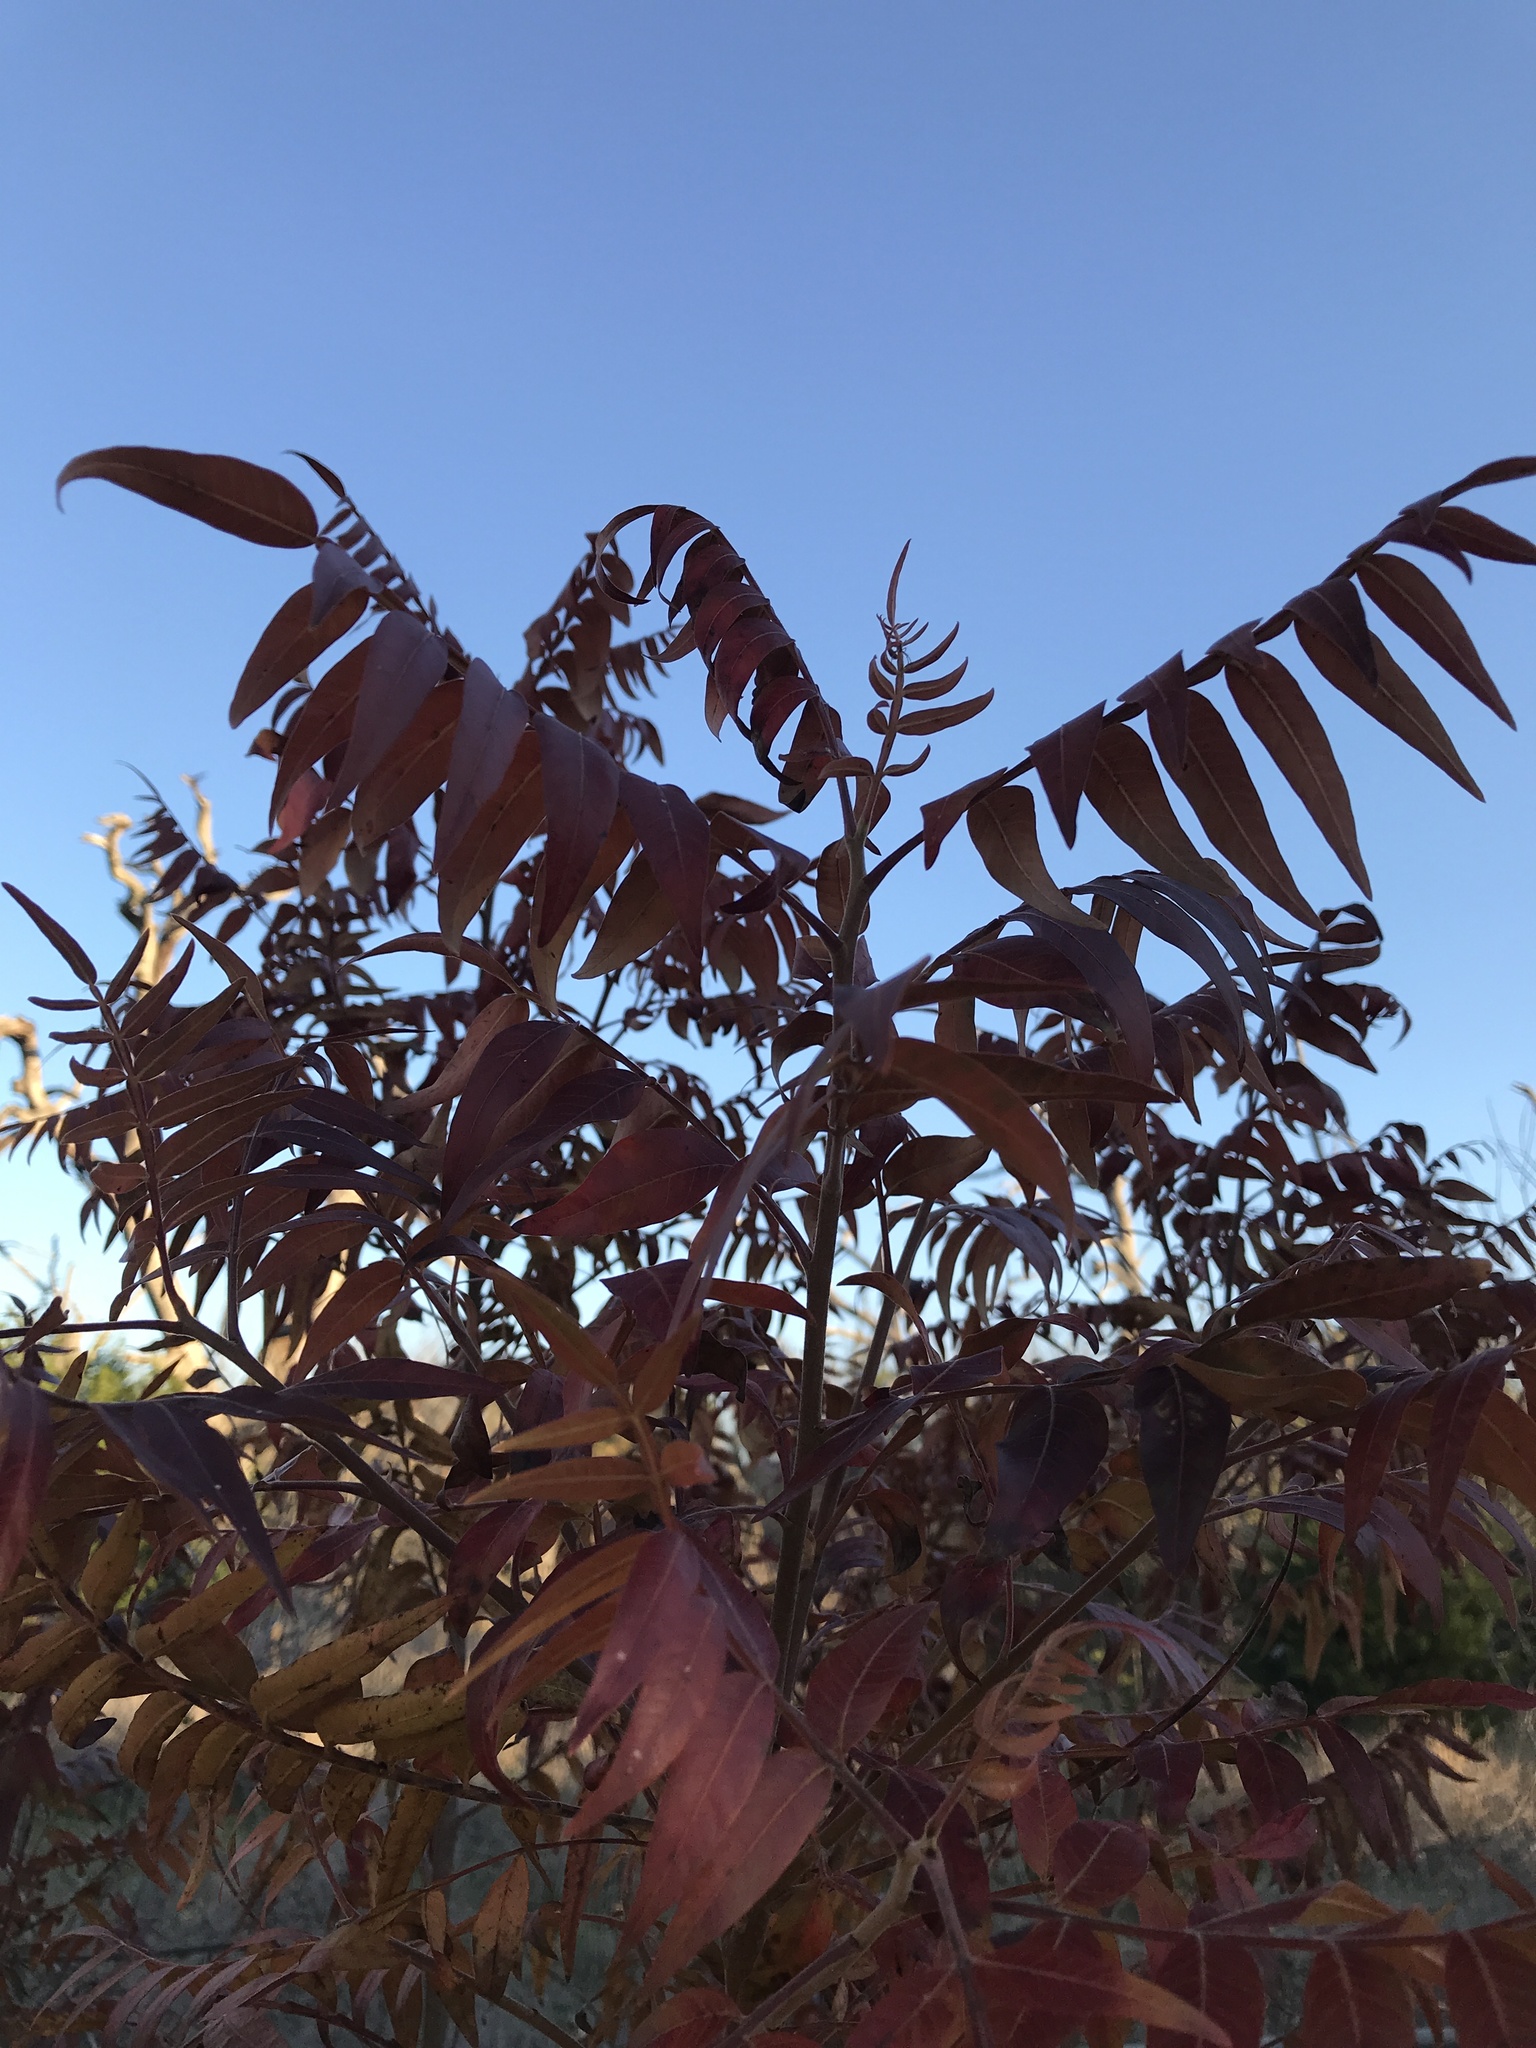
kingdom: Plantae
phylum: Tracheophyta
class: Magnoliopsida
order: Sapindales
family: Anacardiaceae
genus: Rhus
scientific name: Rhus lanceolata
